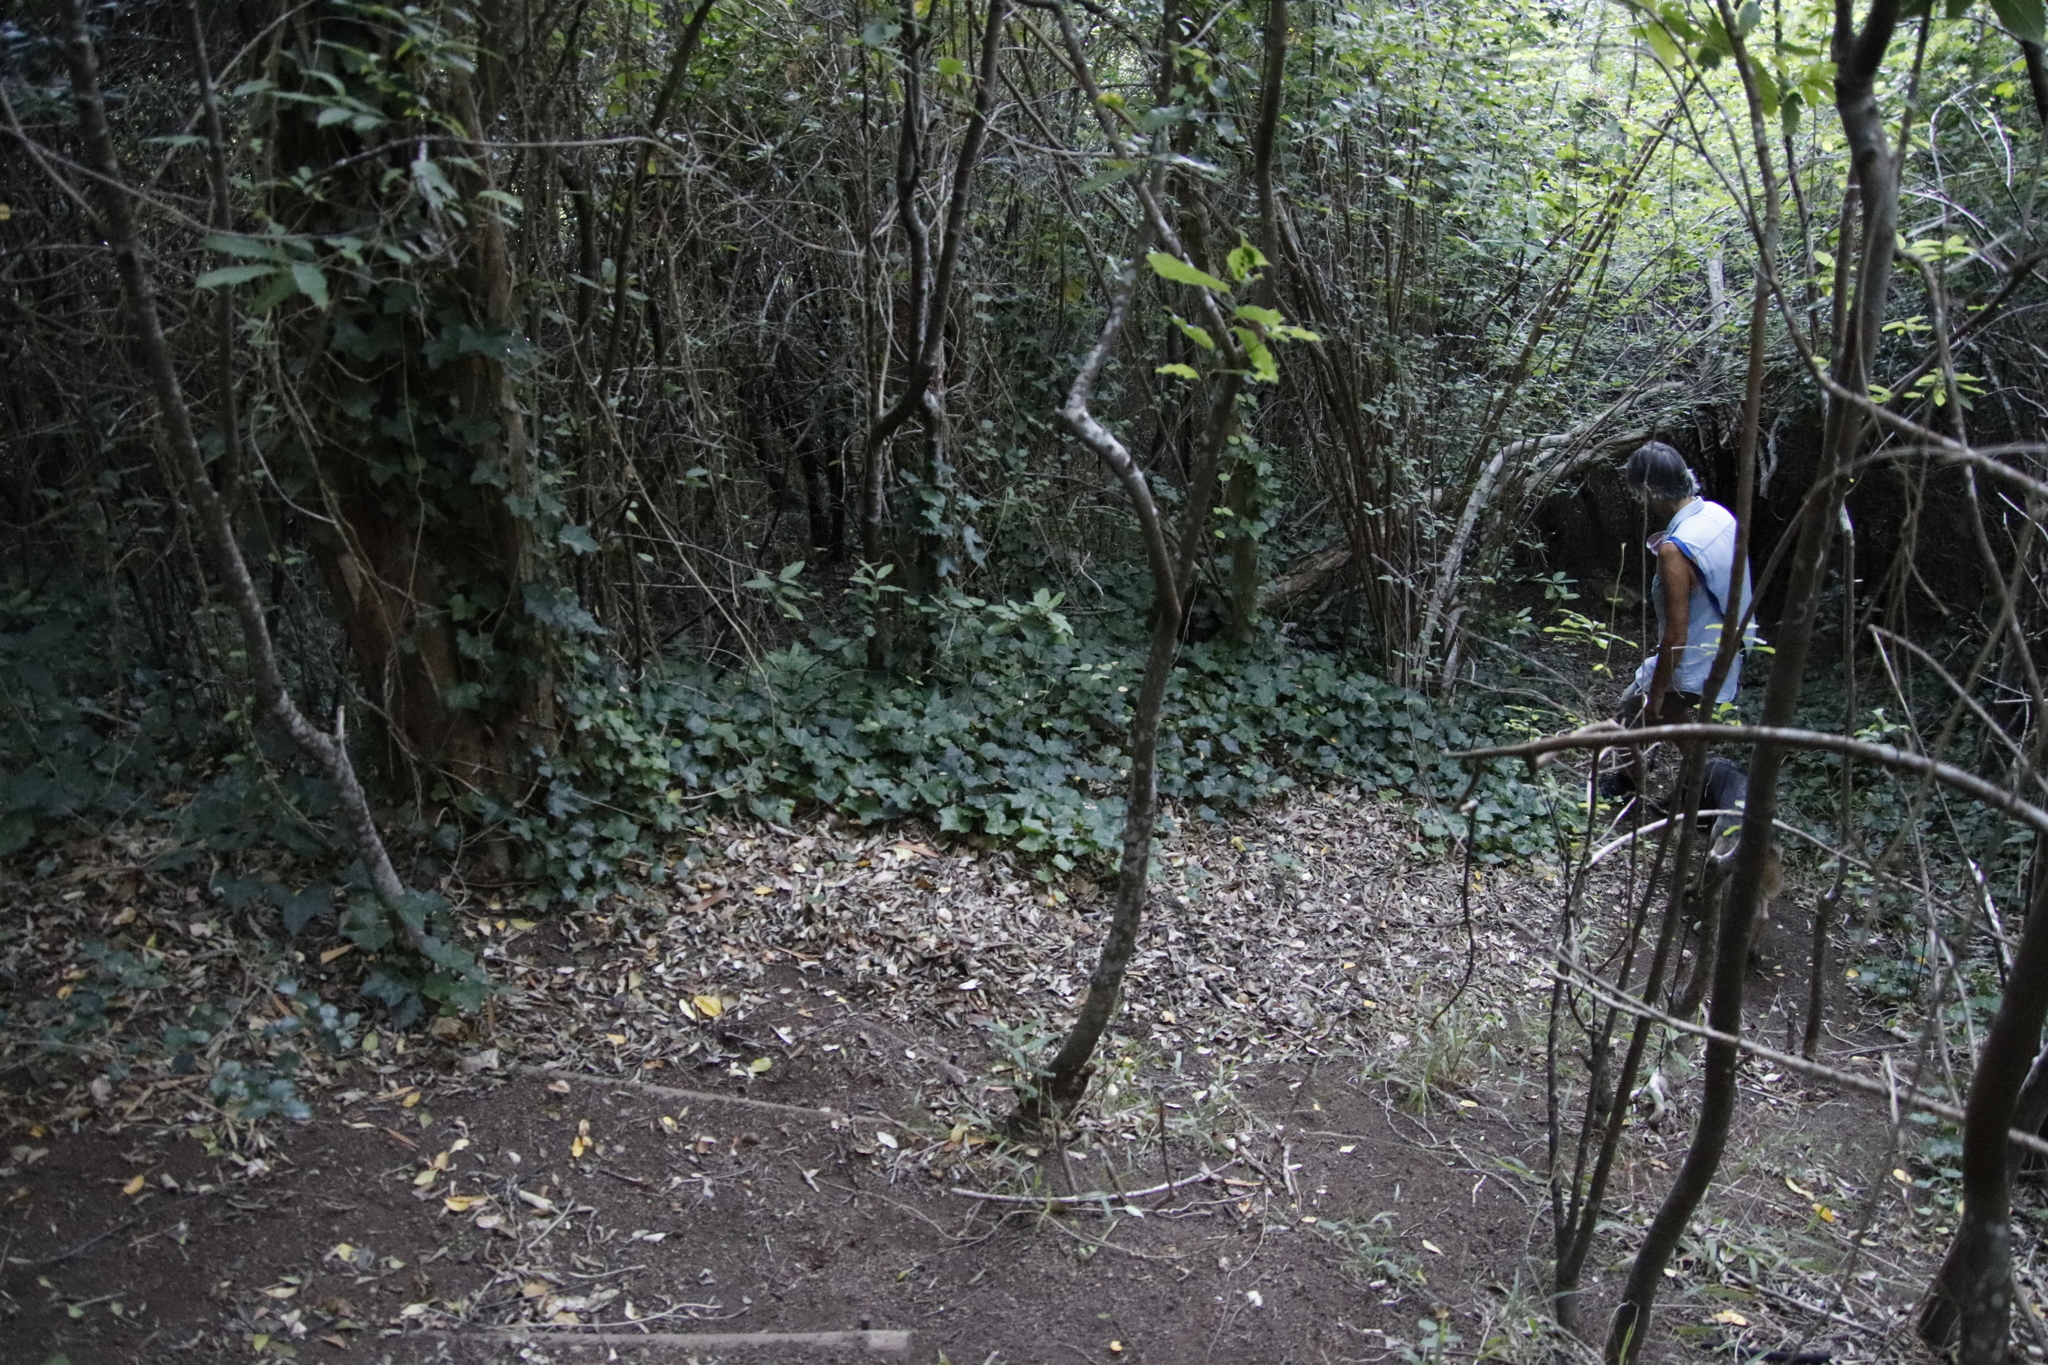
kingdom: Plantae
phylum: Tracheophyta
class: Magnoliopsida
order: Apiales
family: Araliaceae
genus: Hedera
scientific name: Hedera helix
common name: Ivy
